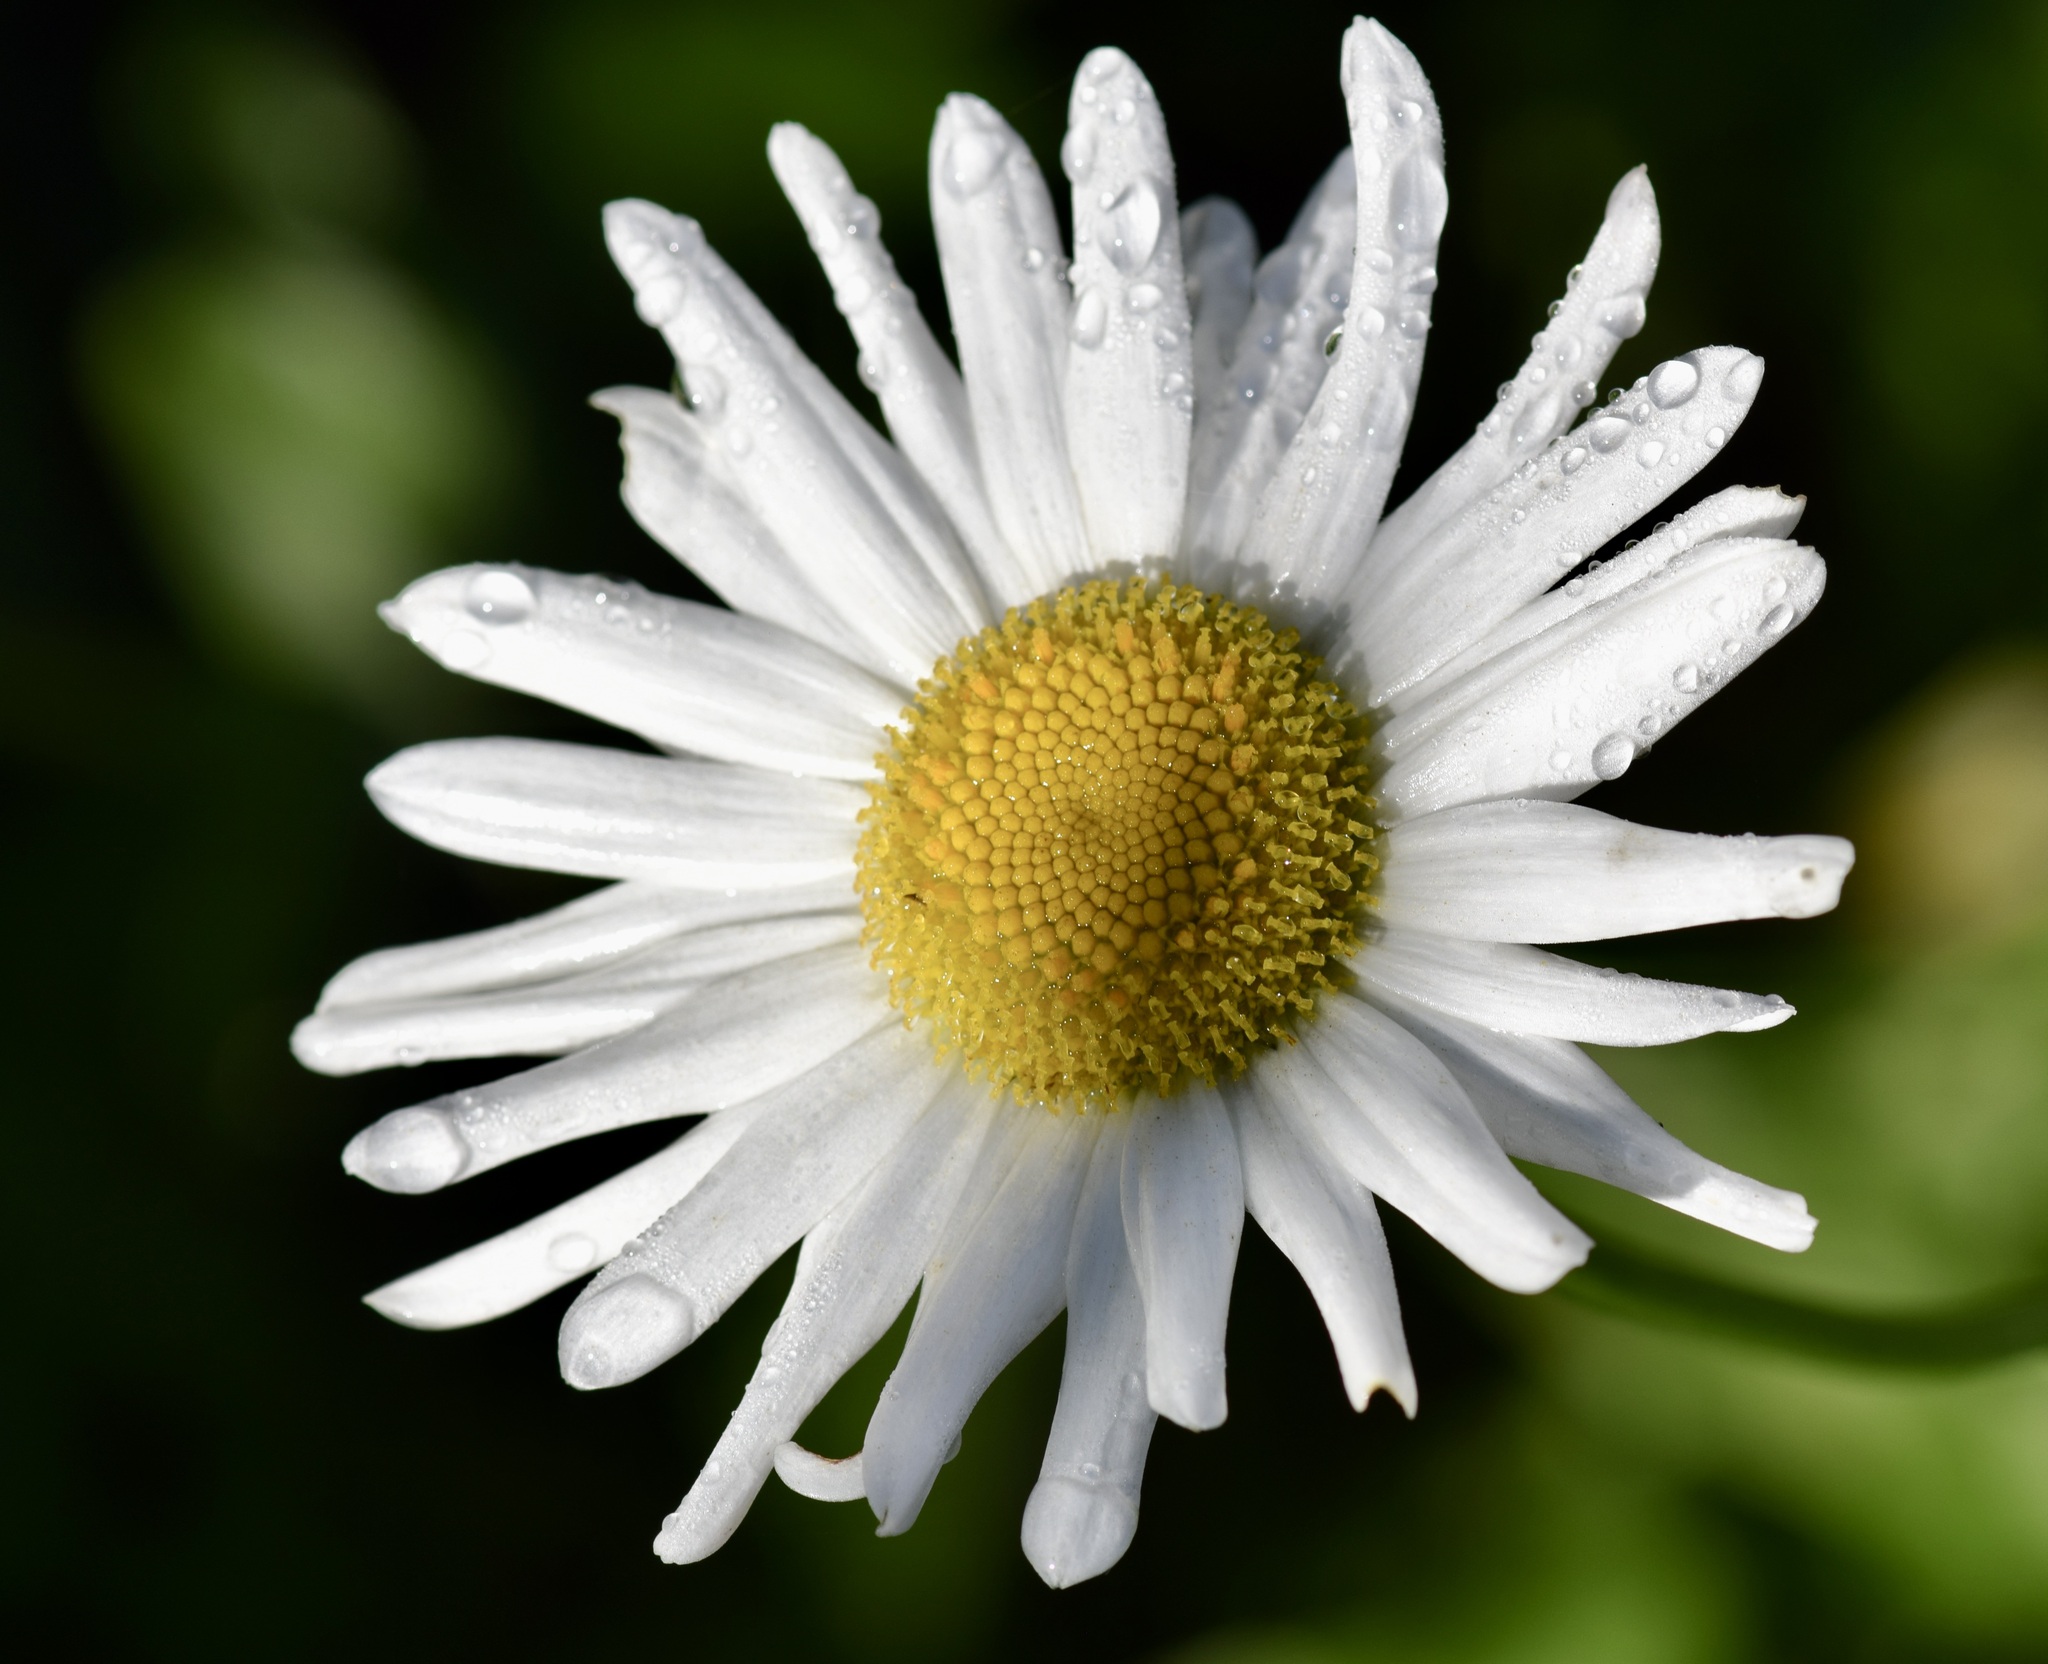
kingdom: Plantae
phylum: Tracheophyta
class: Magnoliopsida
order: Asterales
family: Asteraceae
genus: Leucanthemum
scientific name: Leucanthemum vulgare
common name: Oxeye daisy
